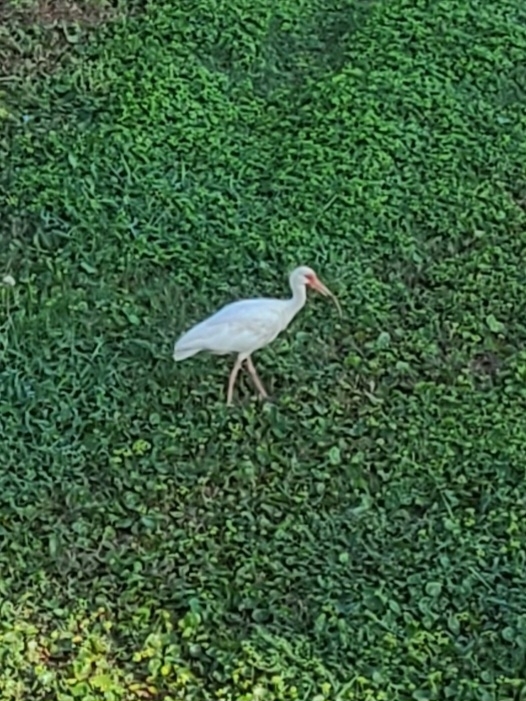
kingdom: Animalia
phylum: Chordata
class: Aves
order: Pelecaniformes
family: Threskiornithidae
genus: Eudocimus
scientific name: Eudocimus albus
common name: White ibis
